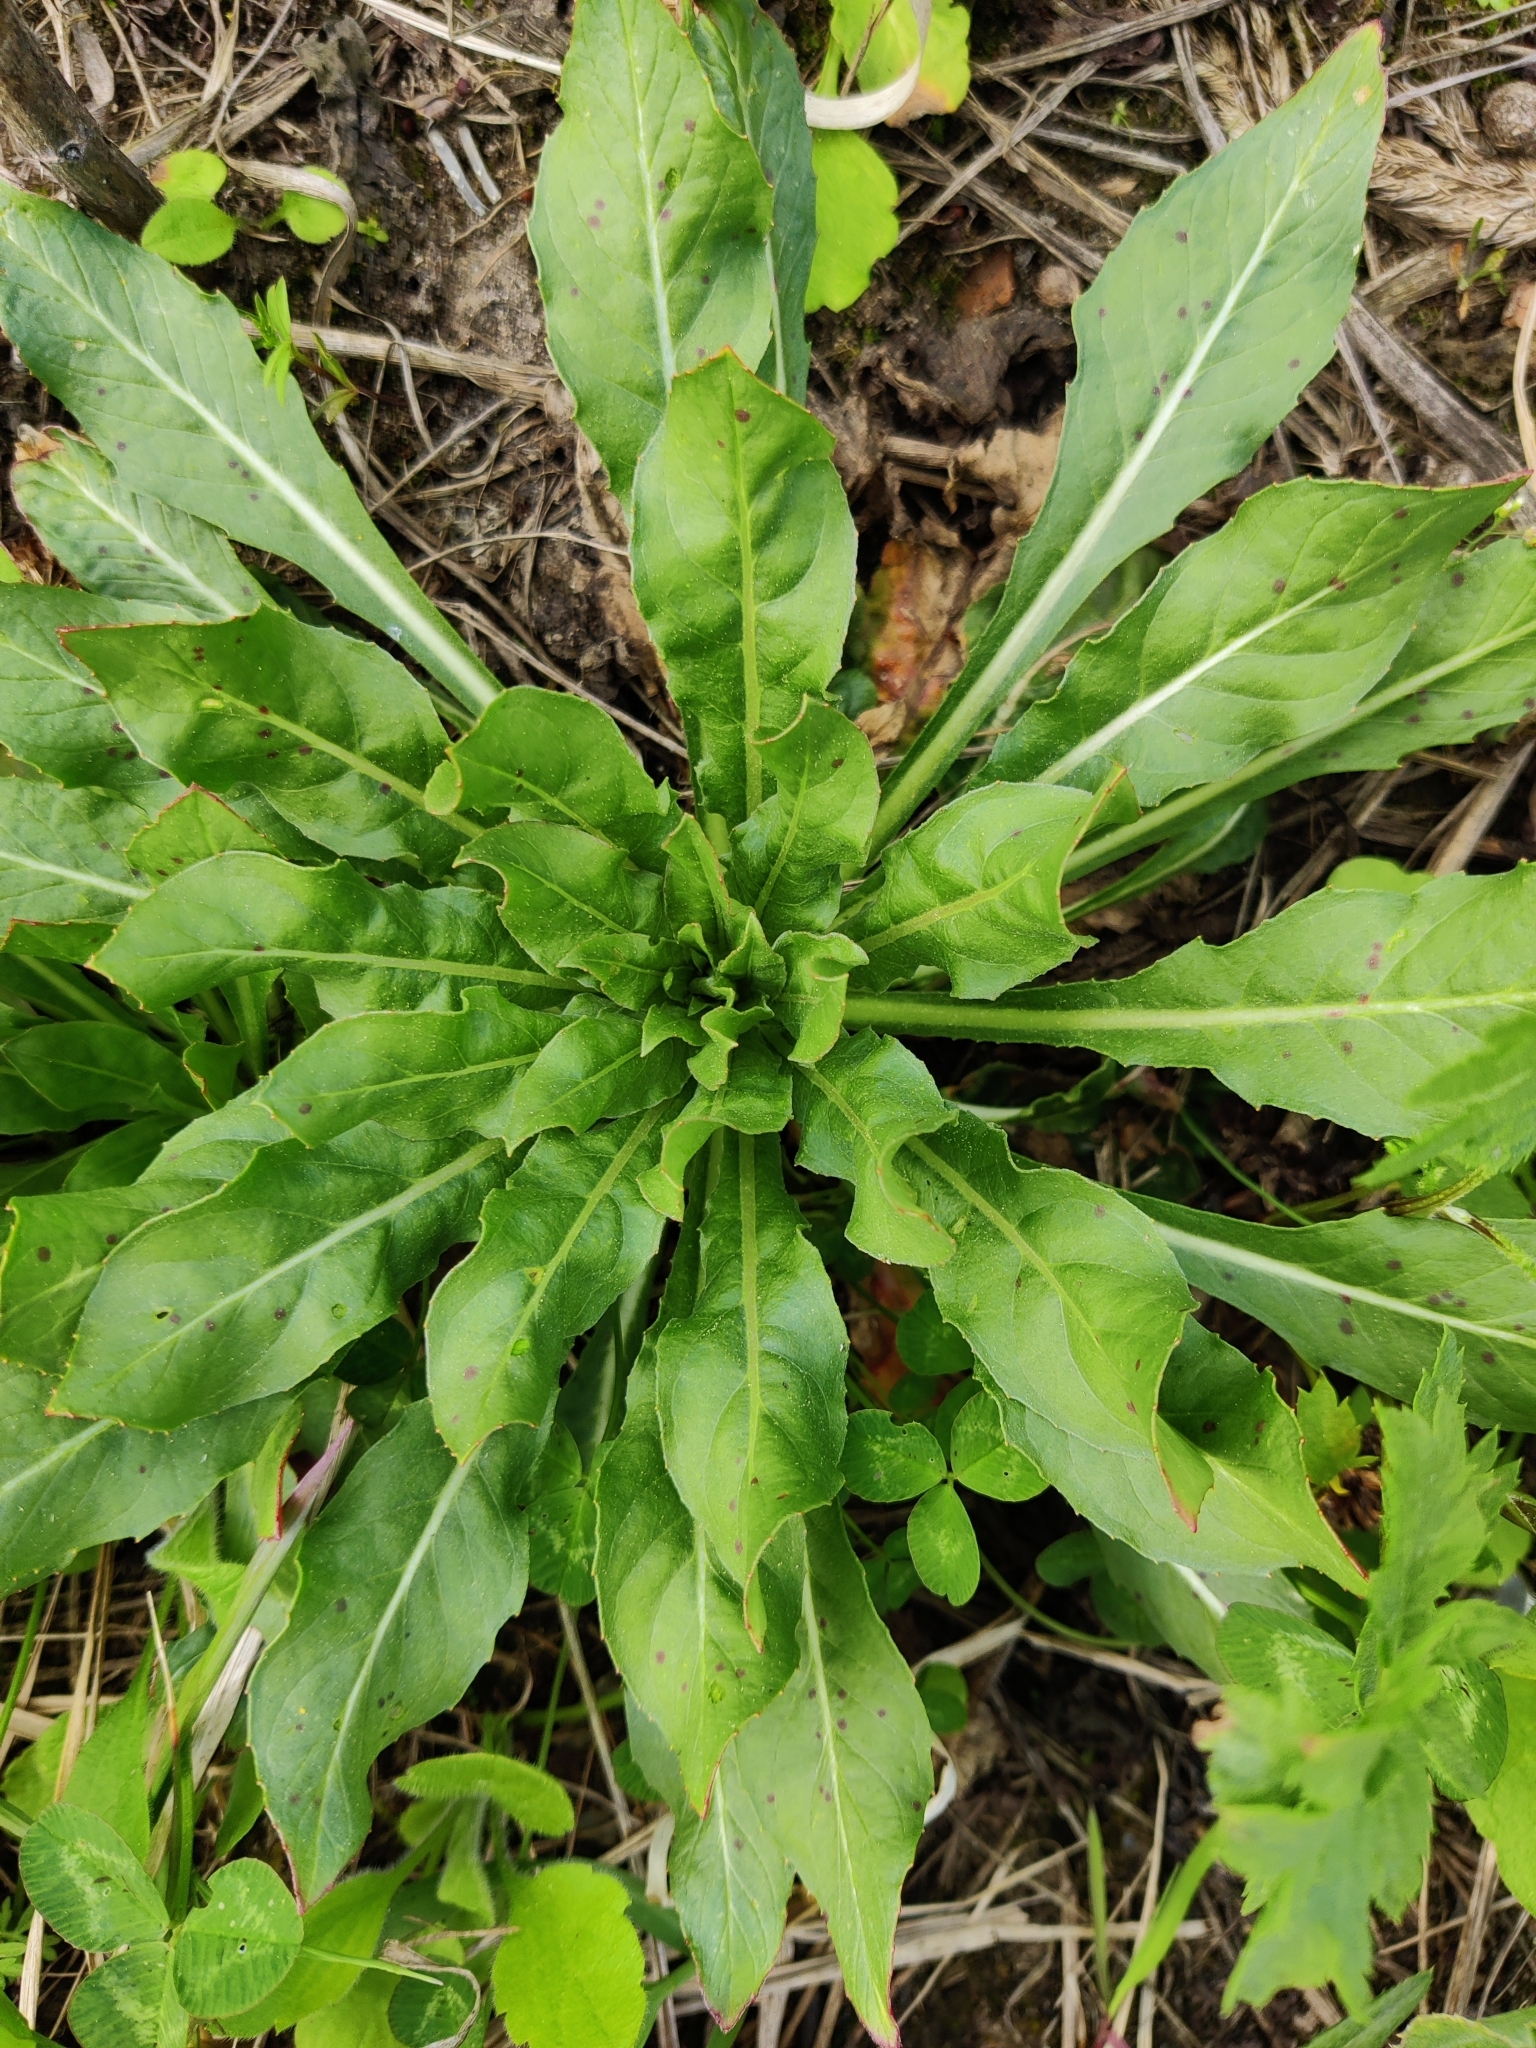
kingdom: Plantae
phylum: Tracheophyta
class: Magnoliopsida
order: Myrtales
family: Onagraceae
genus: Oenothera
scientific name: Oenothera
